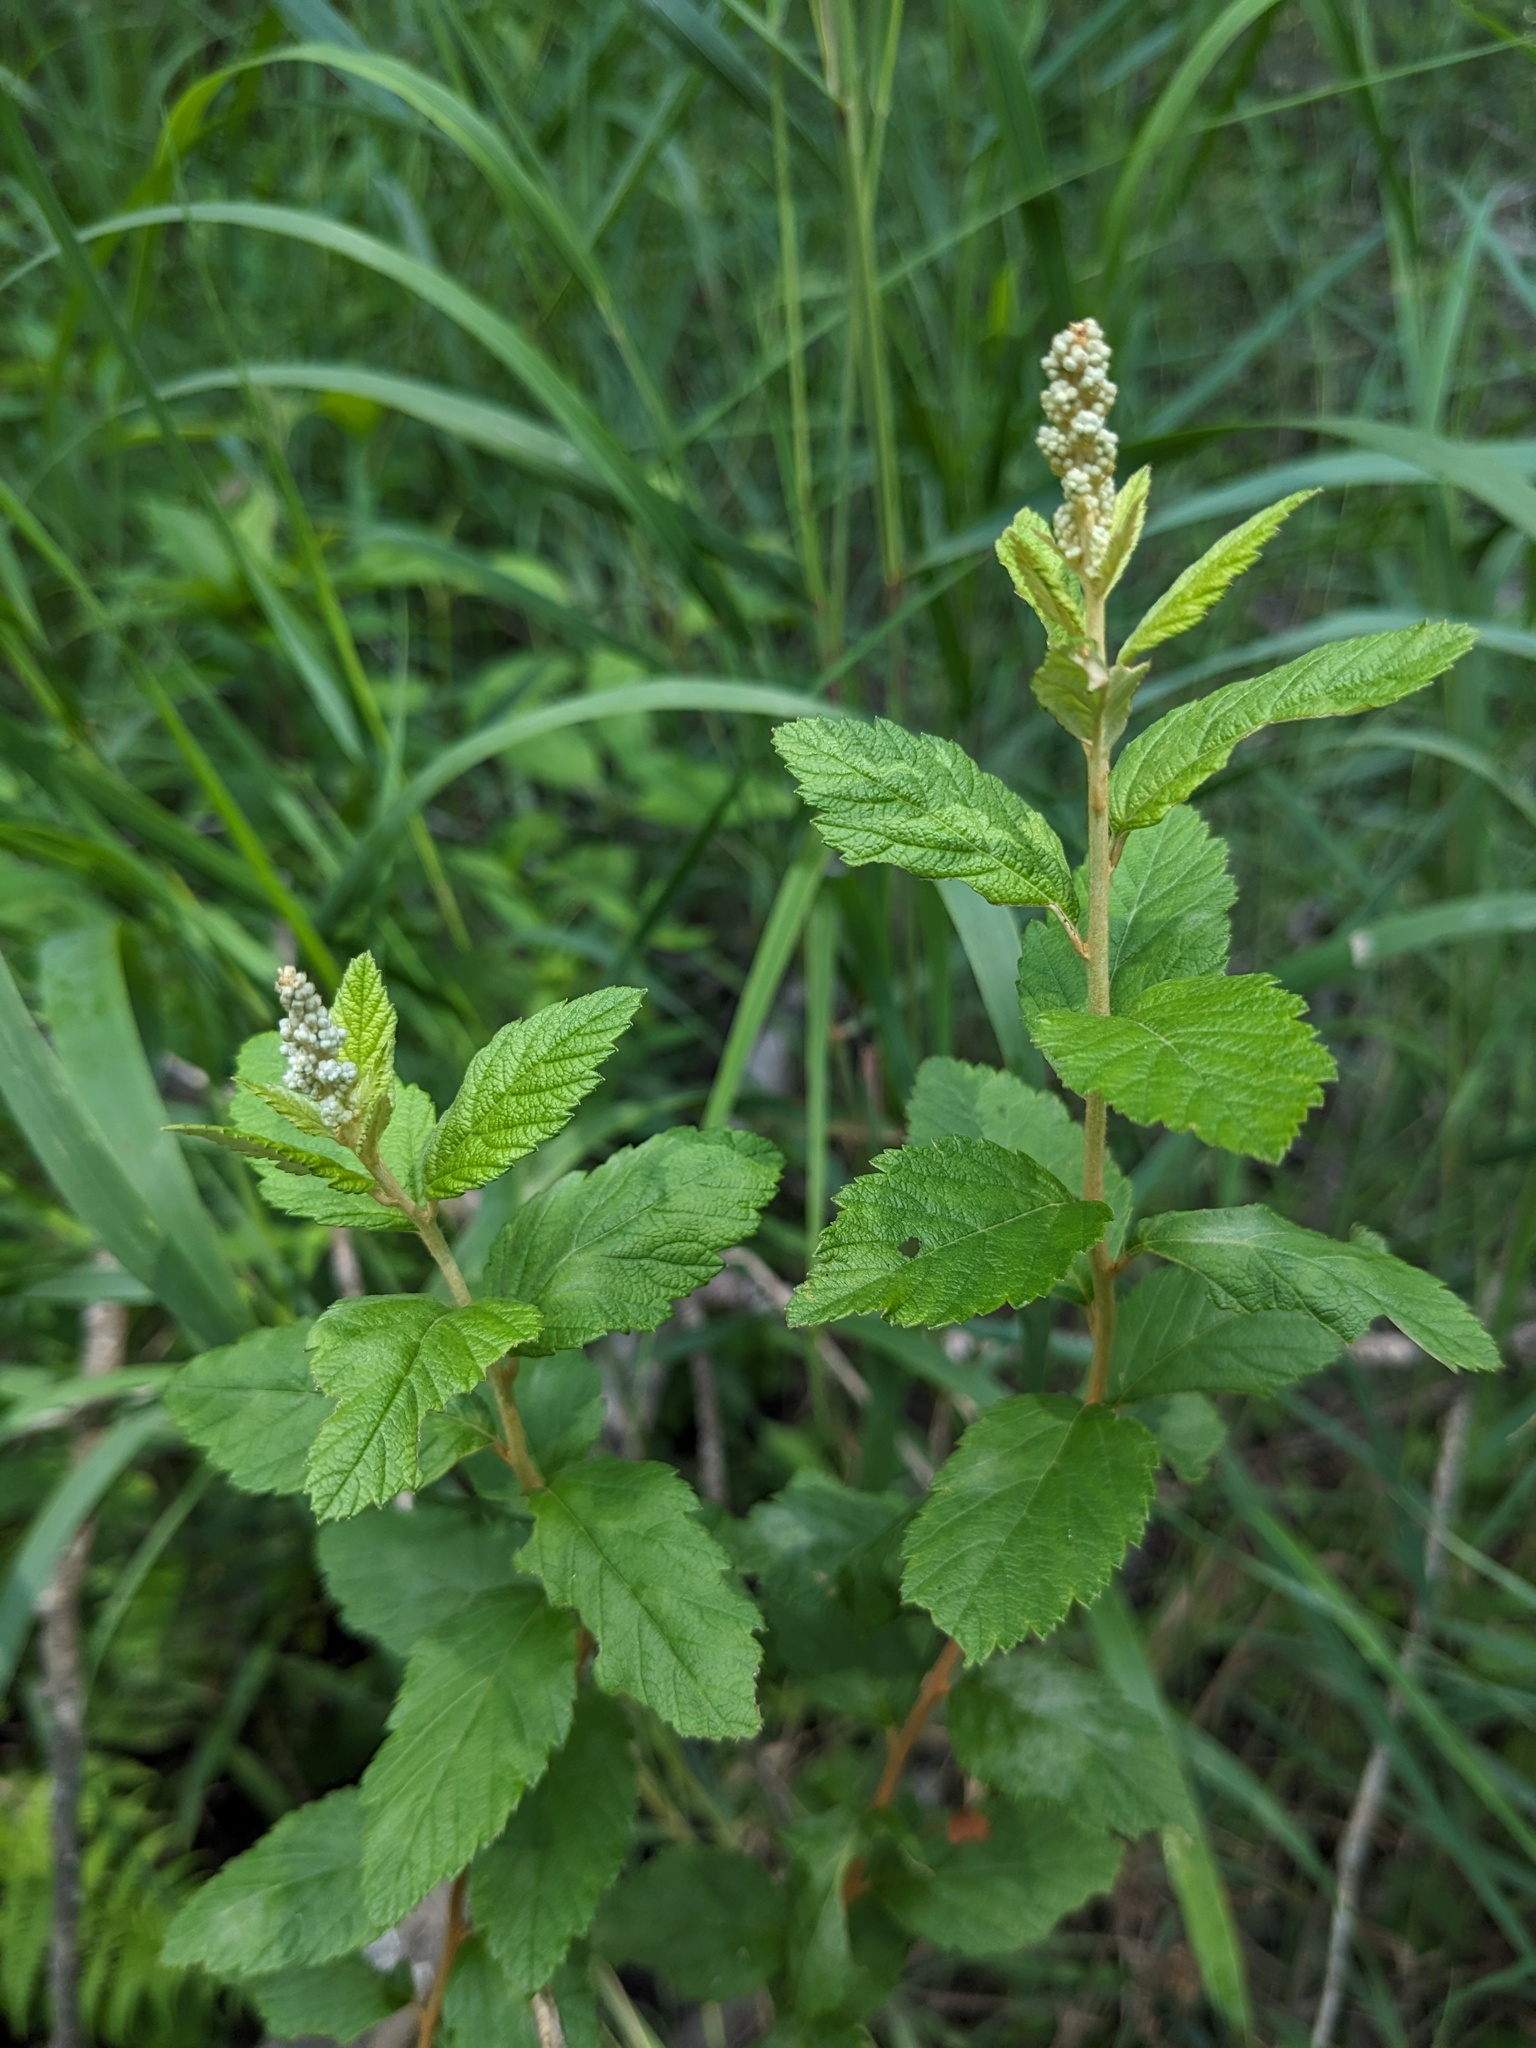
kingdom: Plantae
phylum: Tracheophyta
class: Magnoliopsida
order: Rosales
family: Rosaceae
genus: Spiraea
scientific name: Spiraea tomentosa
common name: Hardhack
